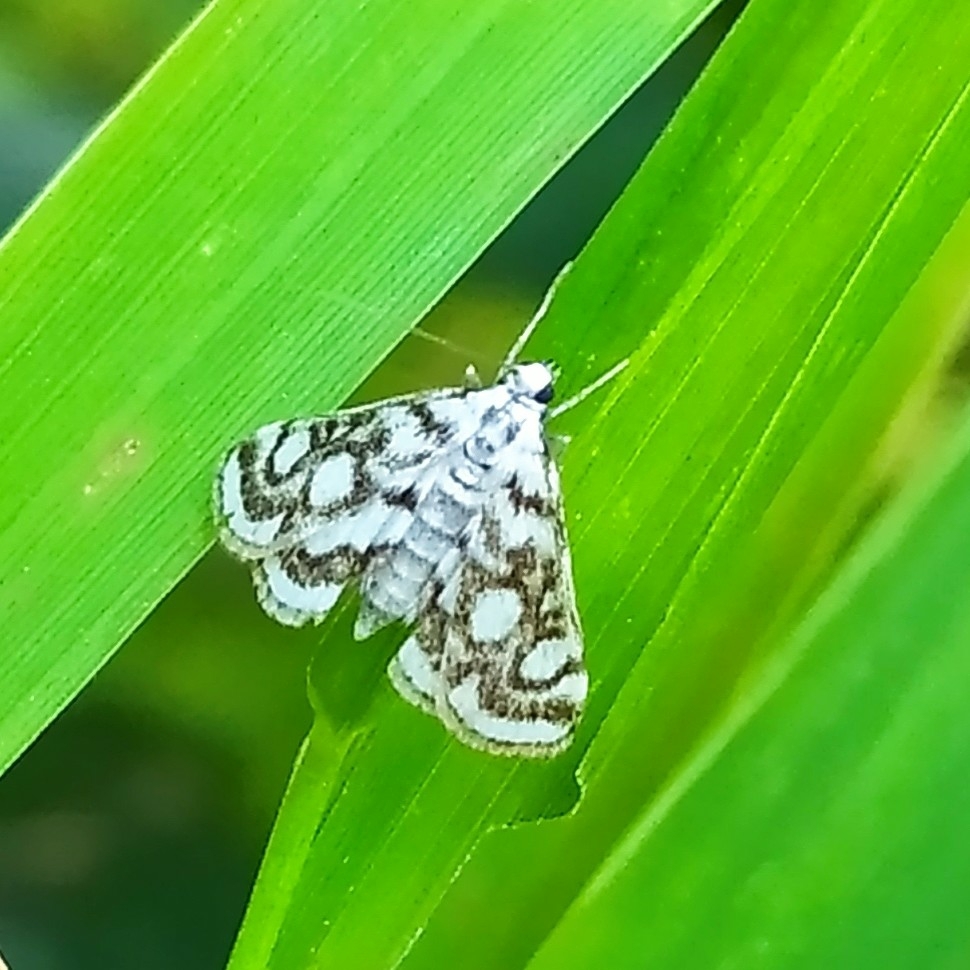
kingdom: Animalia
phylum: Arthropoda
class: Insecta
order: Lepidoptera
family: Crambidae
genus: Nymphula
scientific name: Nymphula nitidulata
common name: Beautiful china mark
